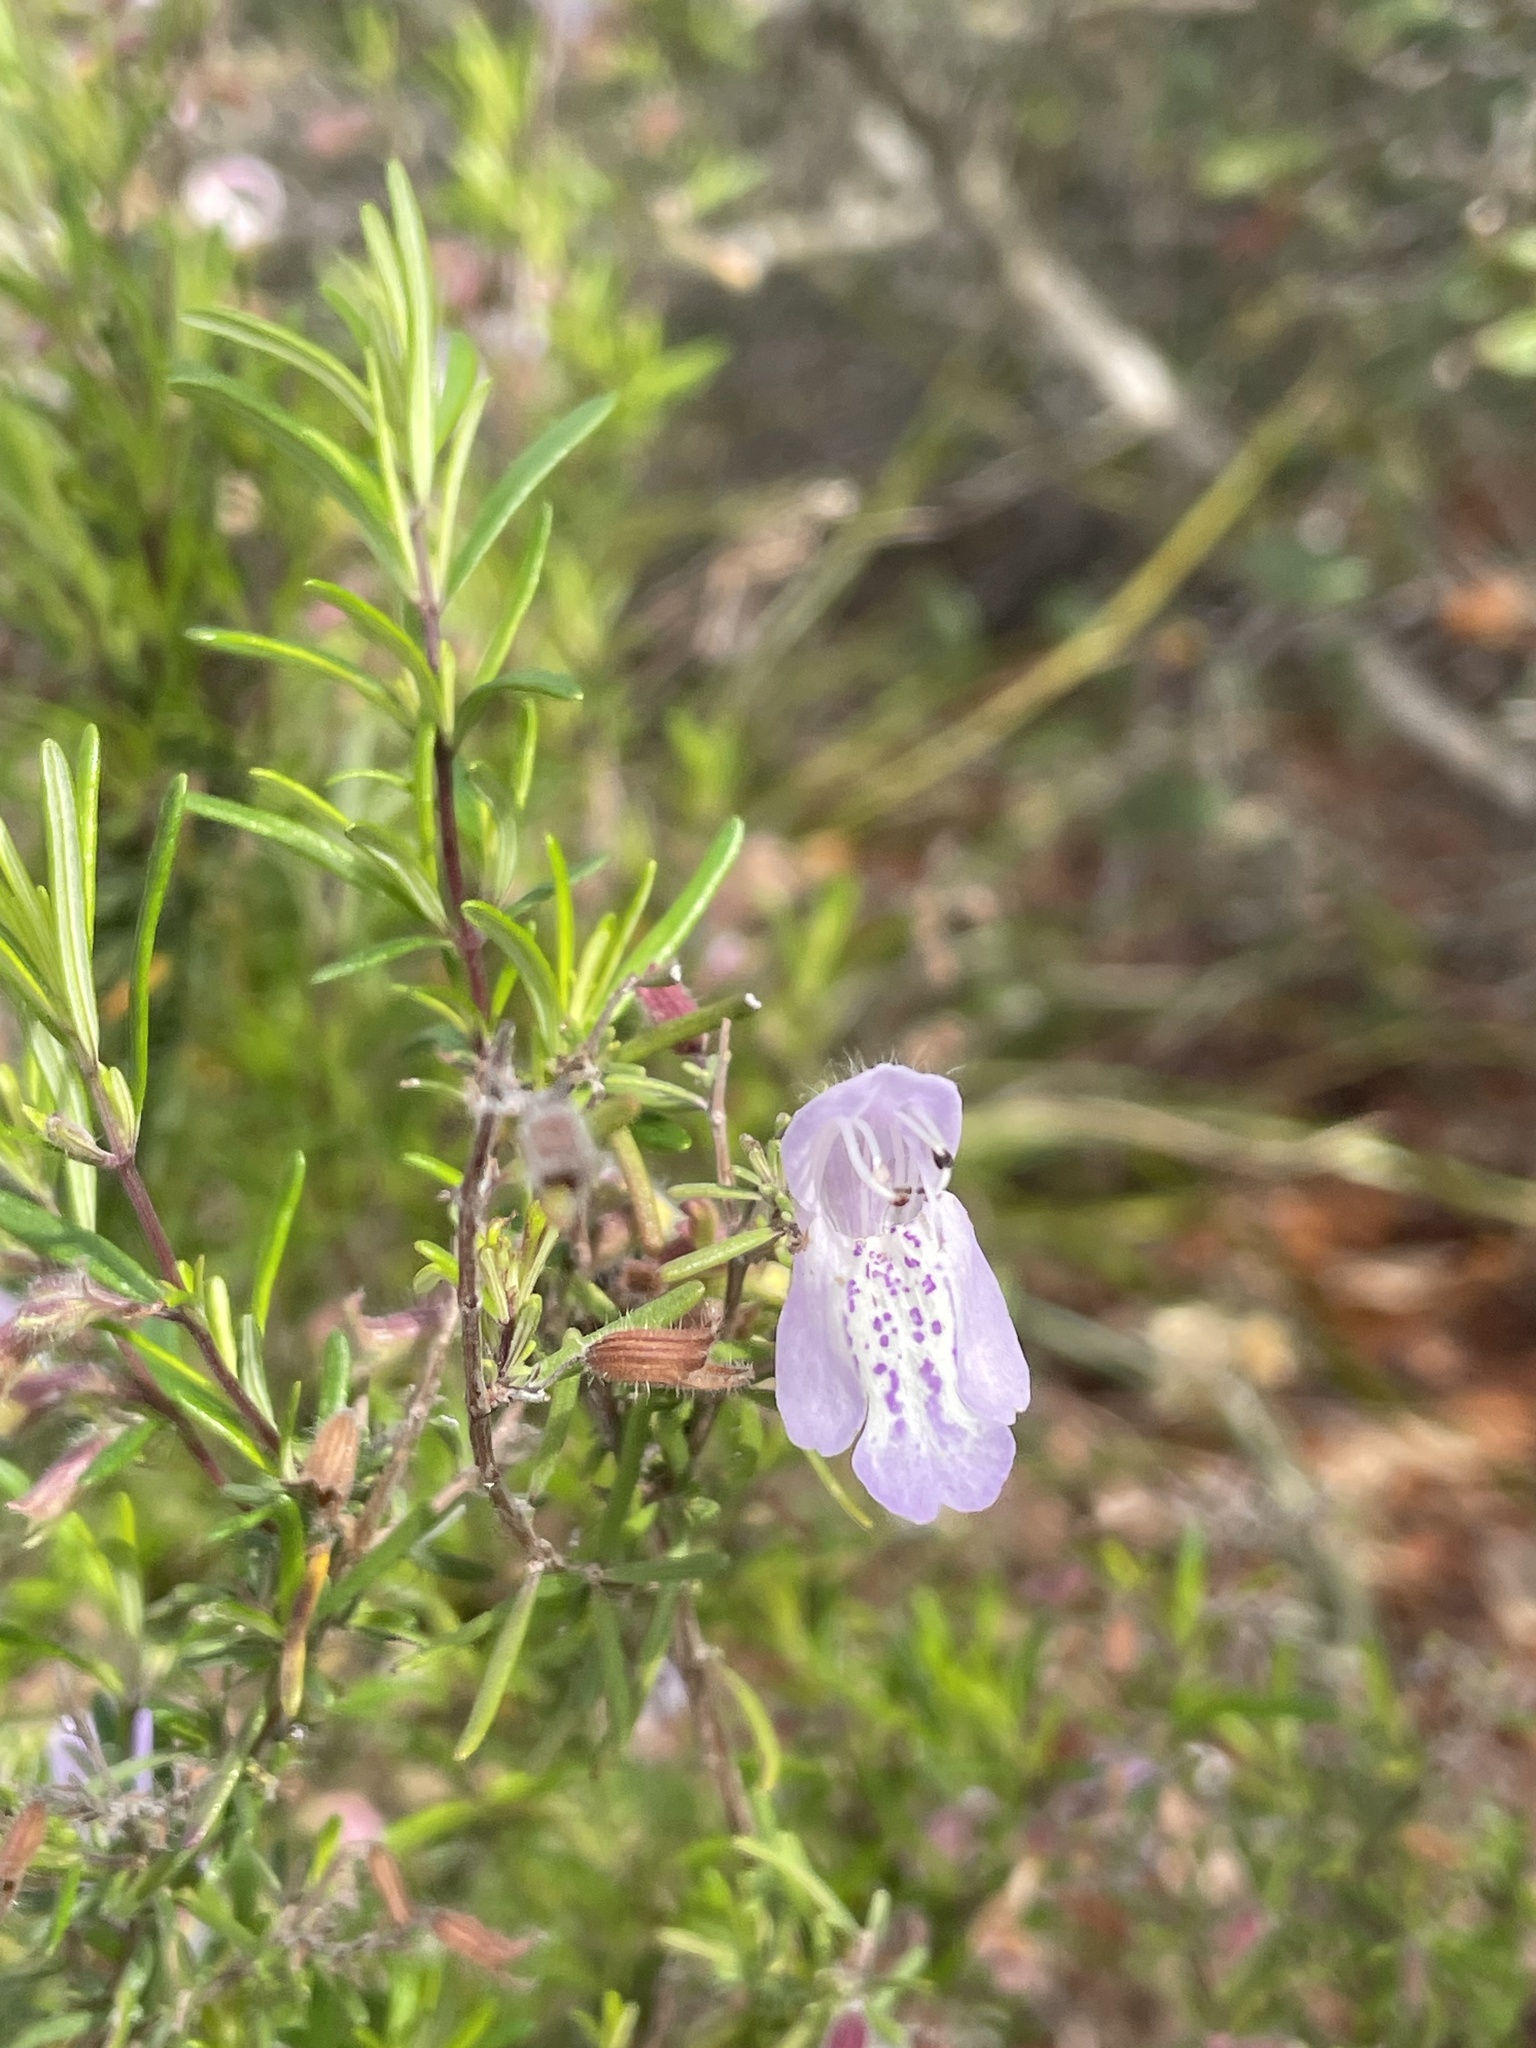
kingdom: Plantae
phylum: Tracheophyta
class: Magnoliopsida
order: Lamiales
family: Lamiaceae
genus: Conradina
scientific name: Conradina grandiflora
